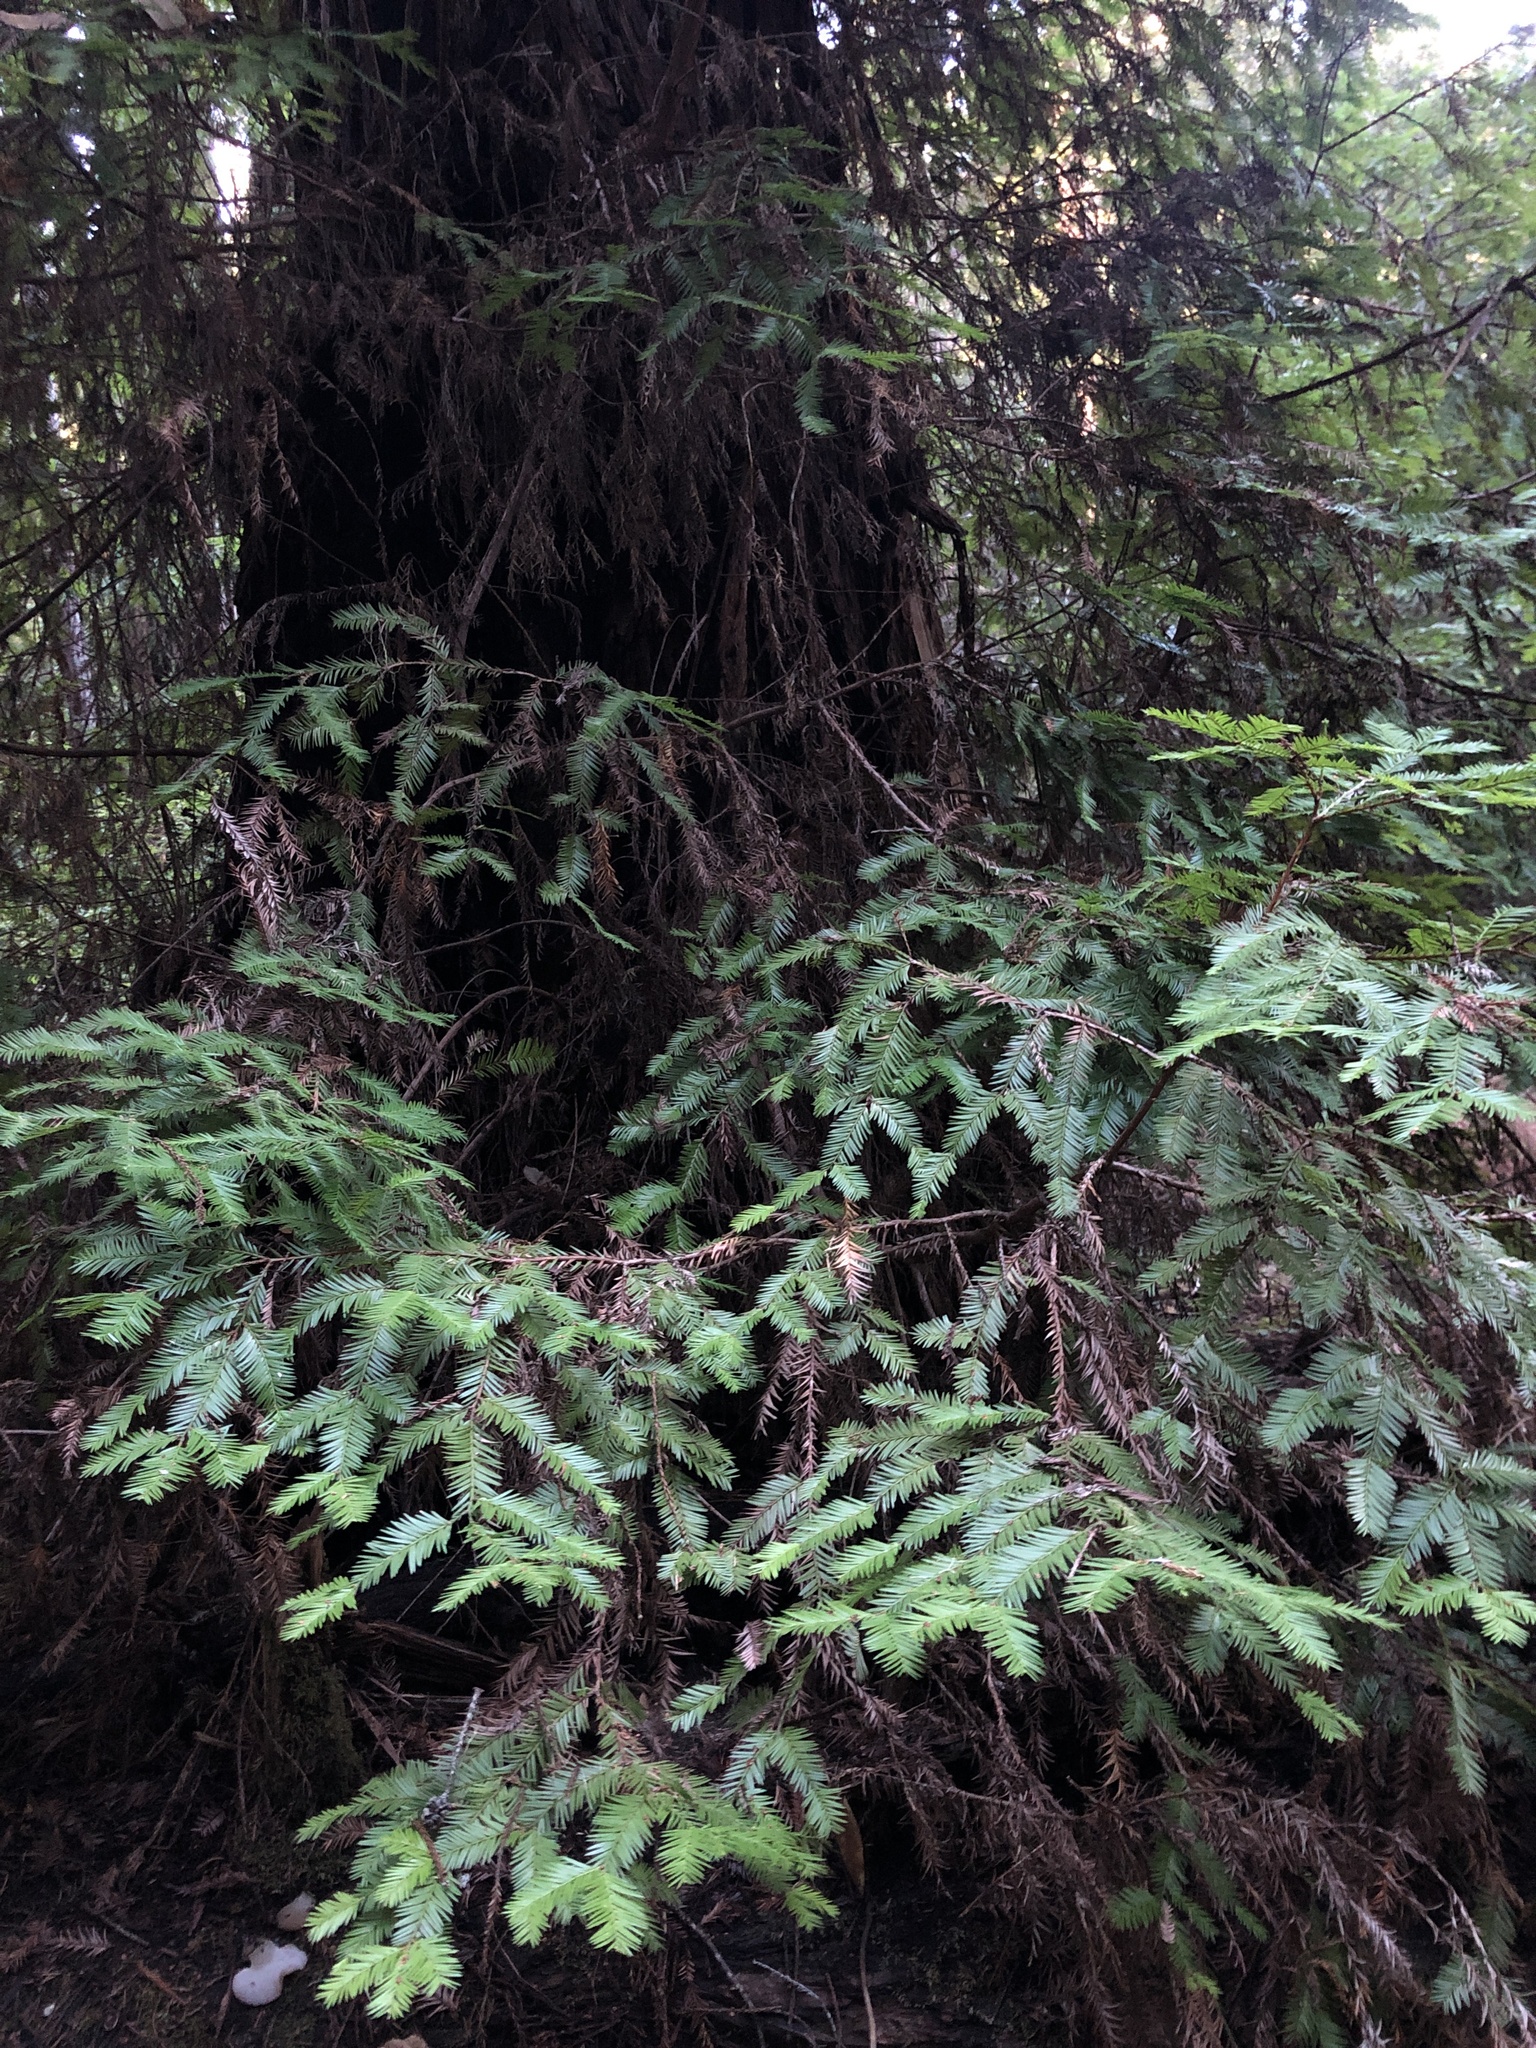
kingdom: Plantae
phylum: Tracheophyta
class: Pinopsida
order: Pinales
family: Cupressaceae
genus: Sequoia
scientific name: Sequoia sempervirens
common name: Coast redwood
